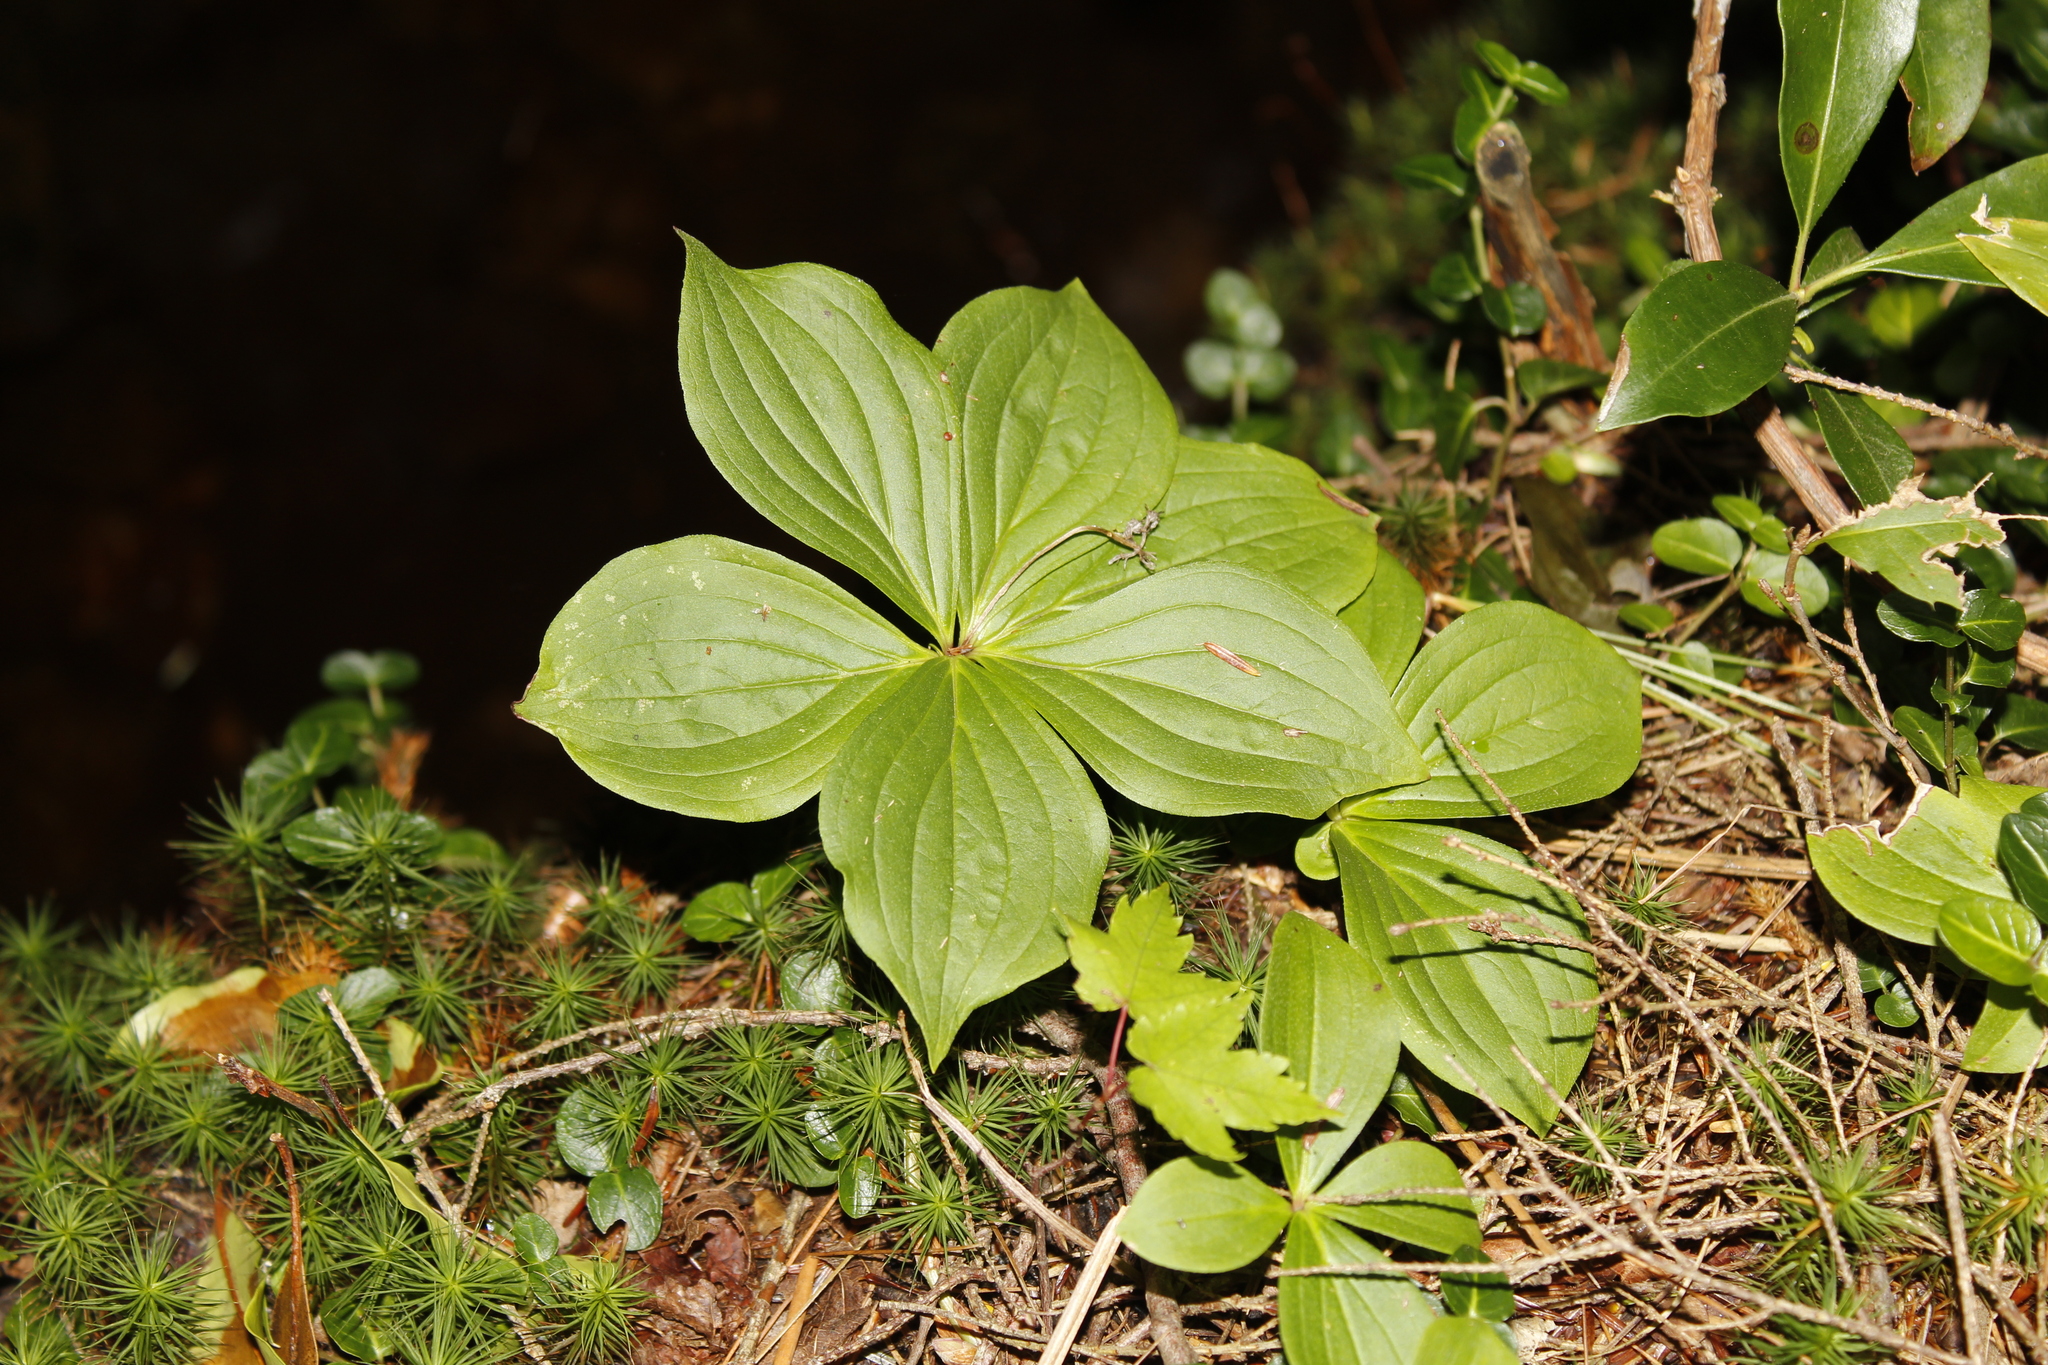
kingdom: Plantae
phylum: Tracheophyta
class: Magnoliopsida
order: Cornales
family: Cornaceae
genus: Cornus
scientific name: Cornus canadensis
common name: Creeping dogwood
